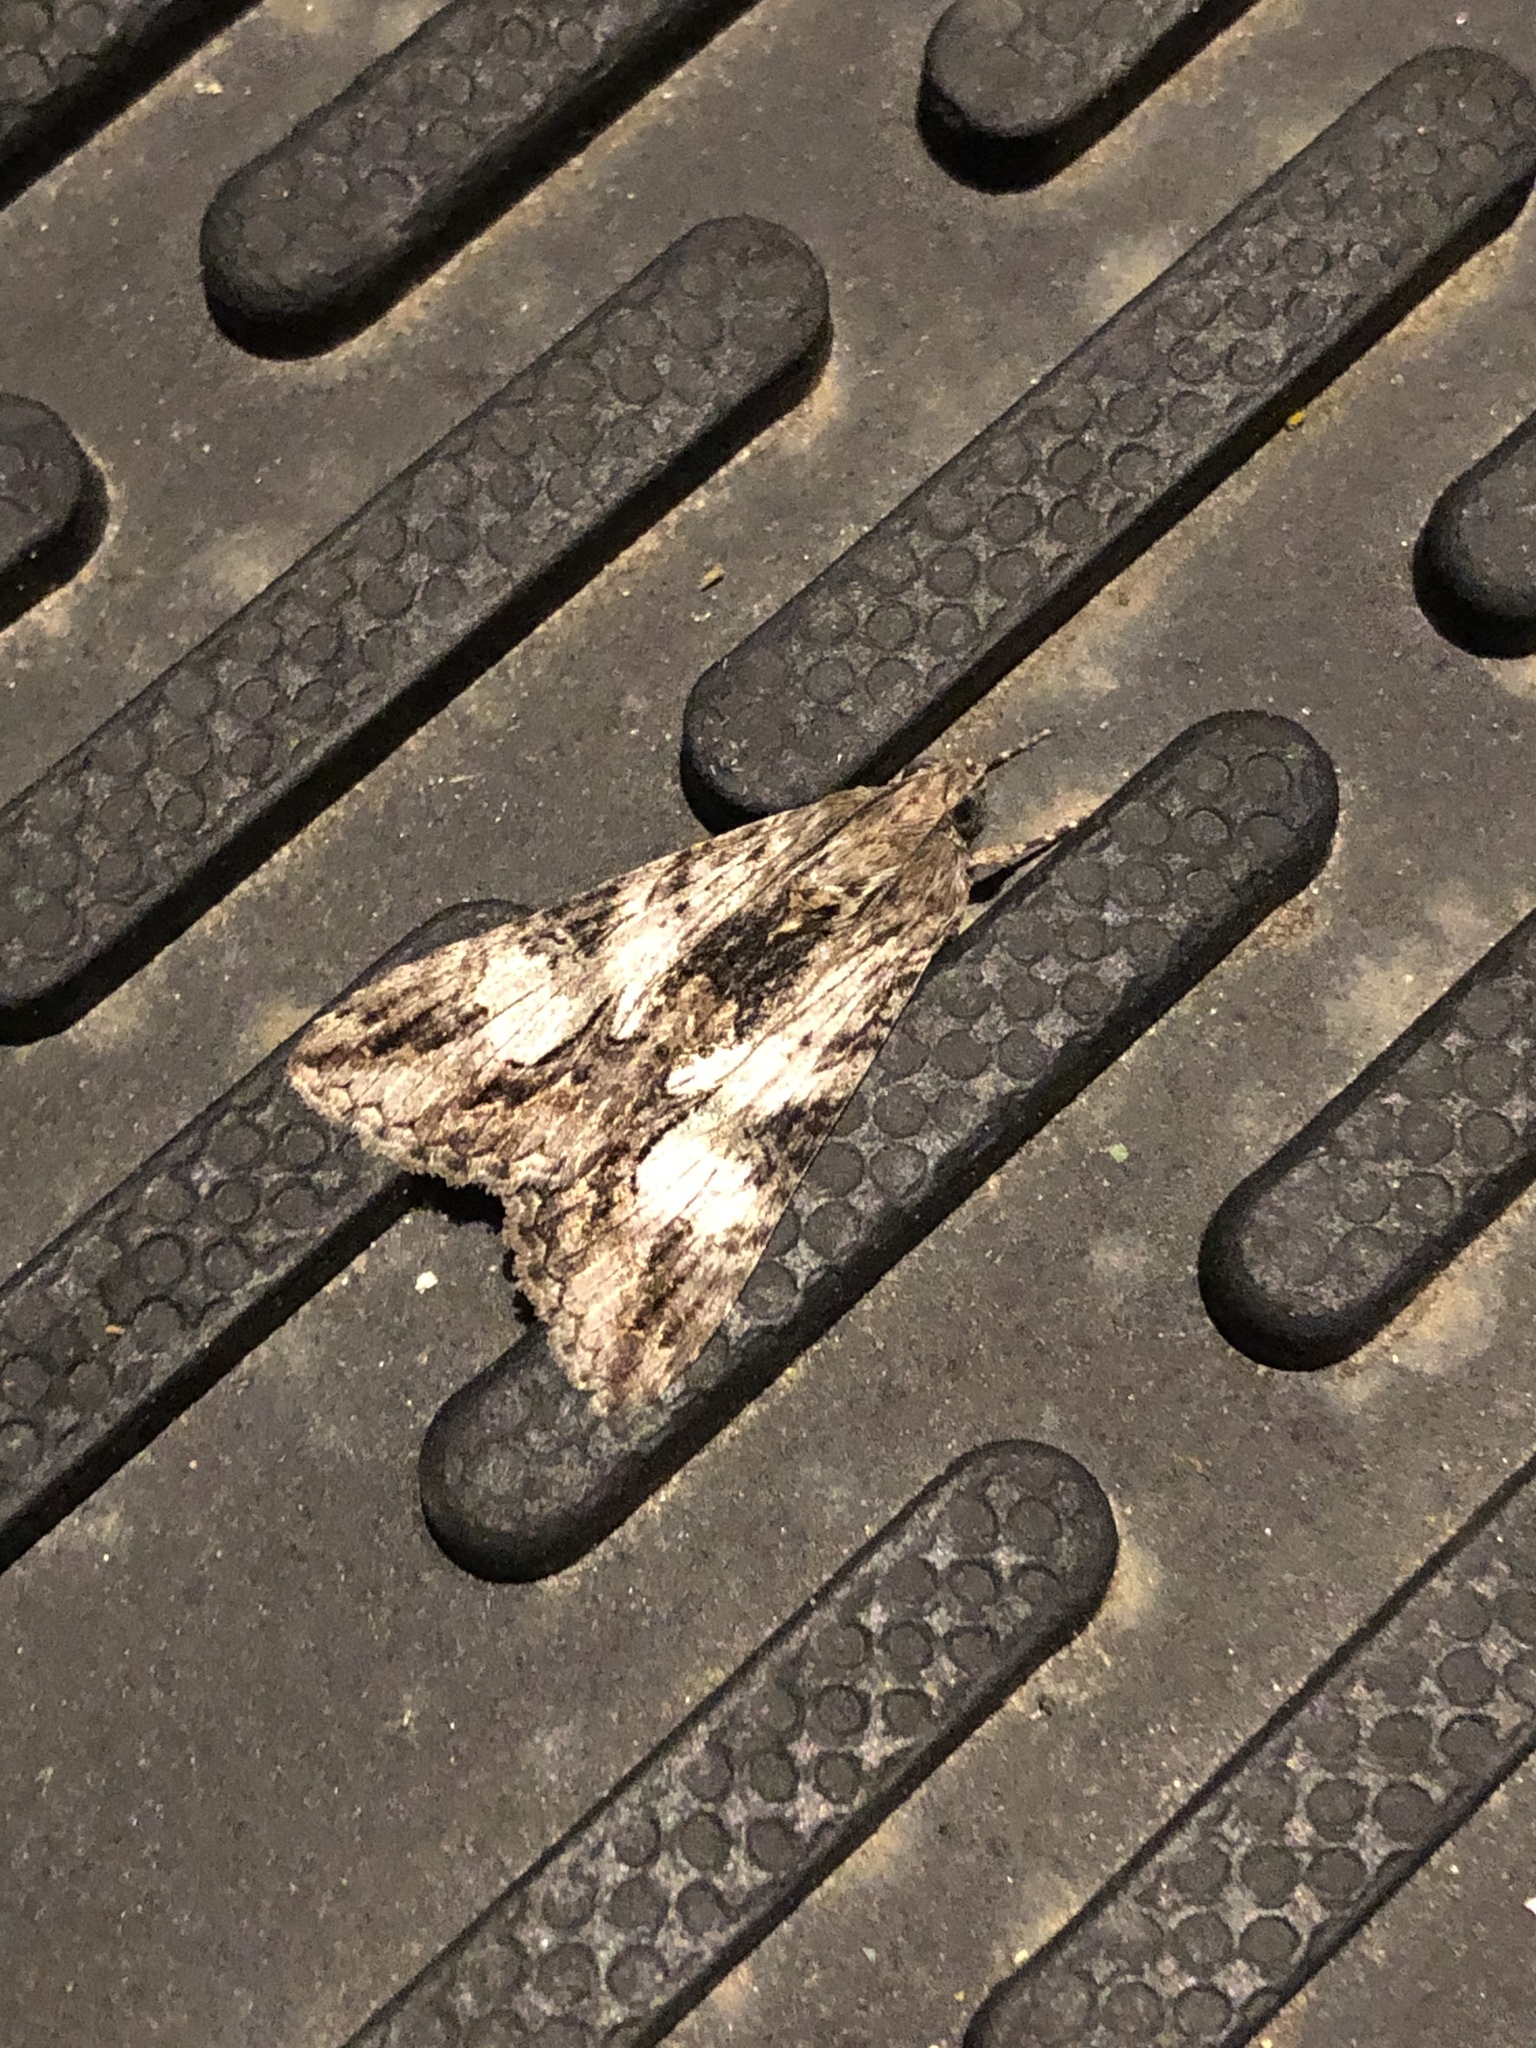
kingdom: Animalia
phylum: Arthropoda
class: Insecta
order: Lepidoptera
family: Erebidae
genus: Melipotis
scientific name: Melipotis jucunda
